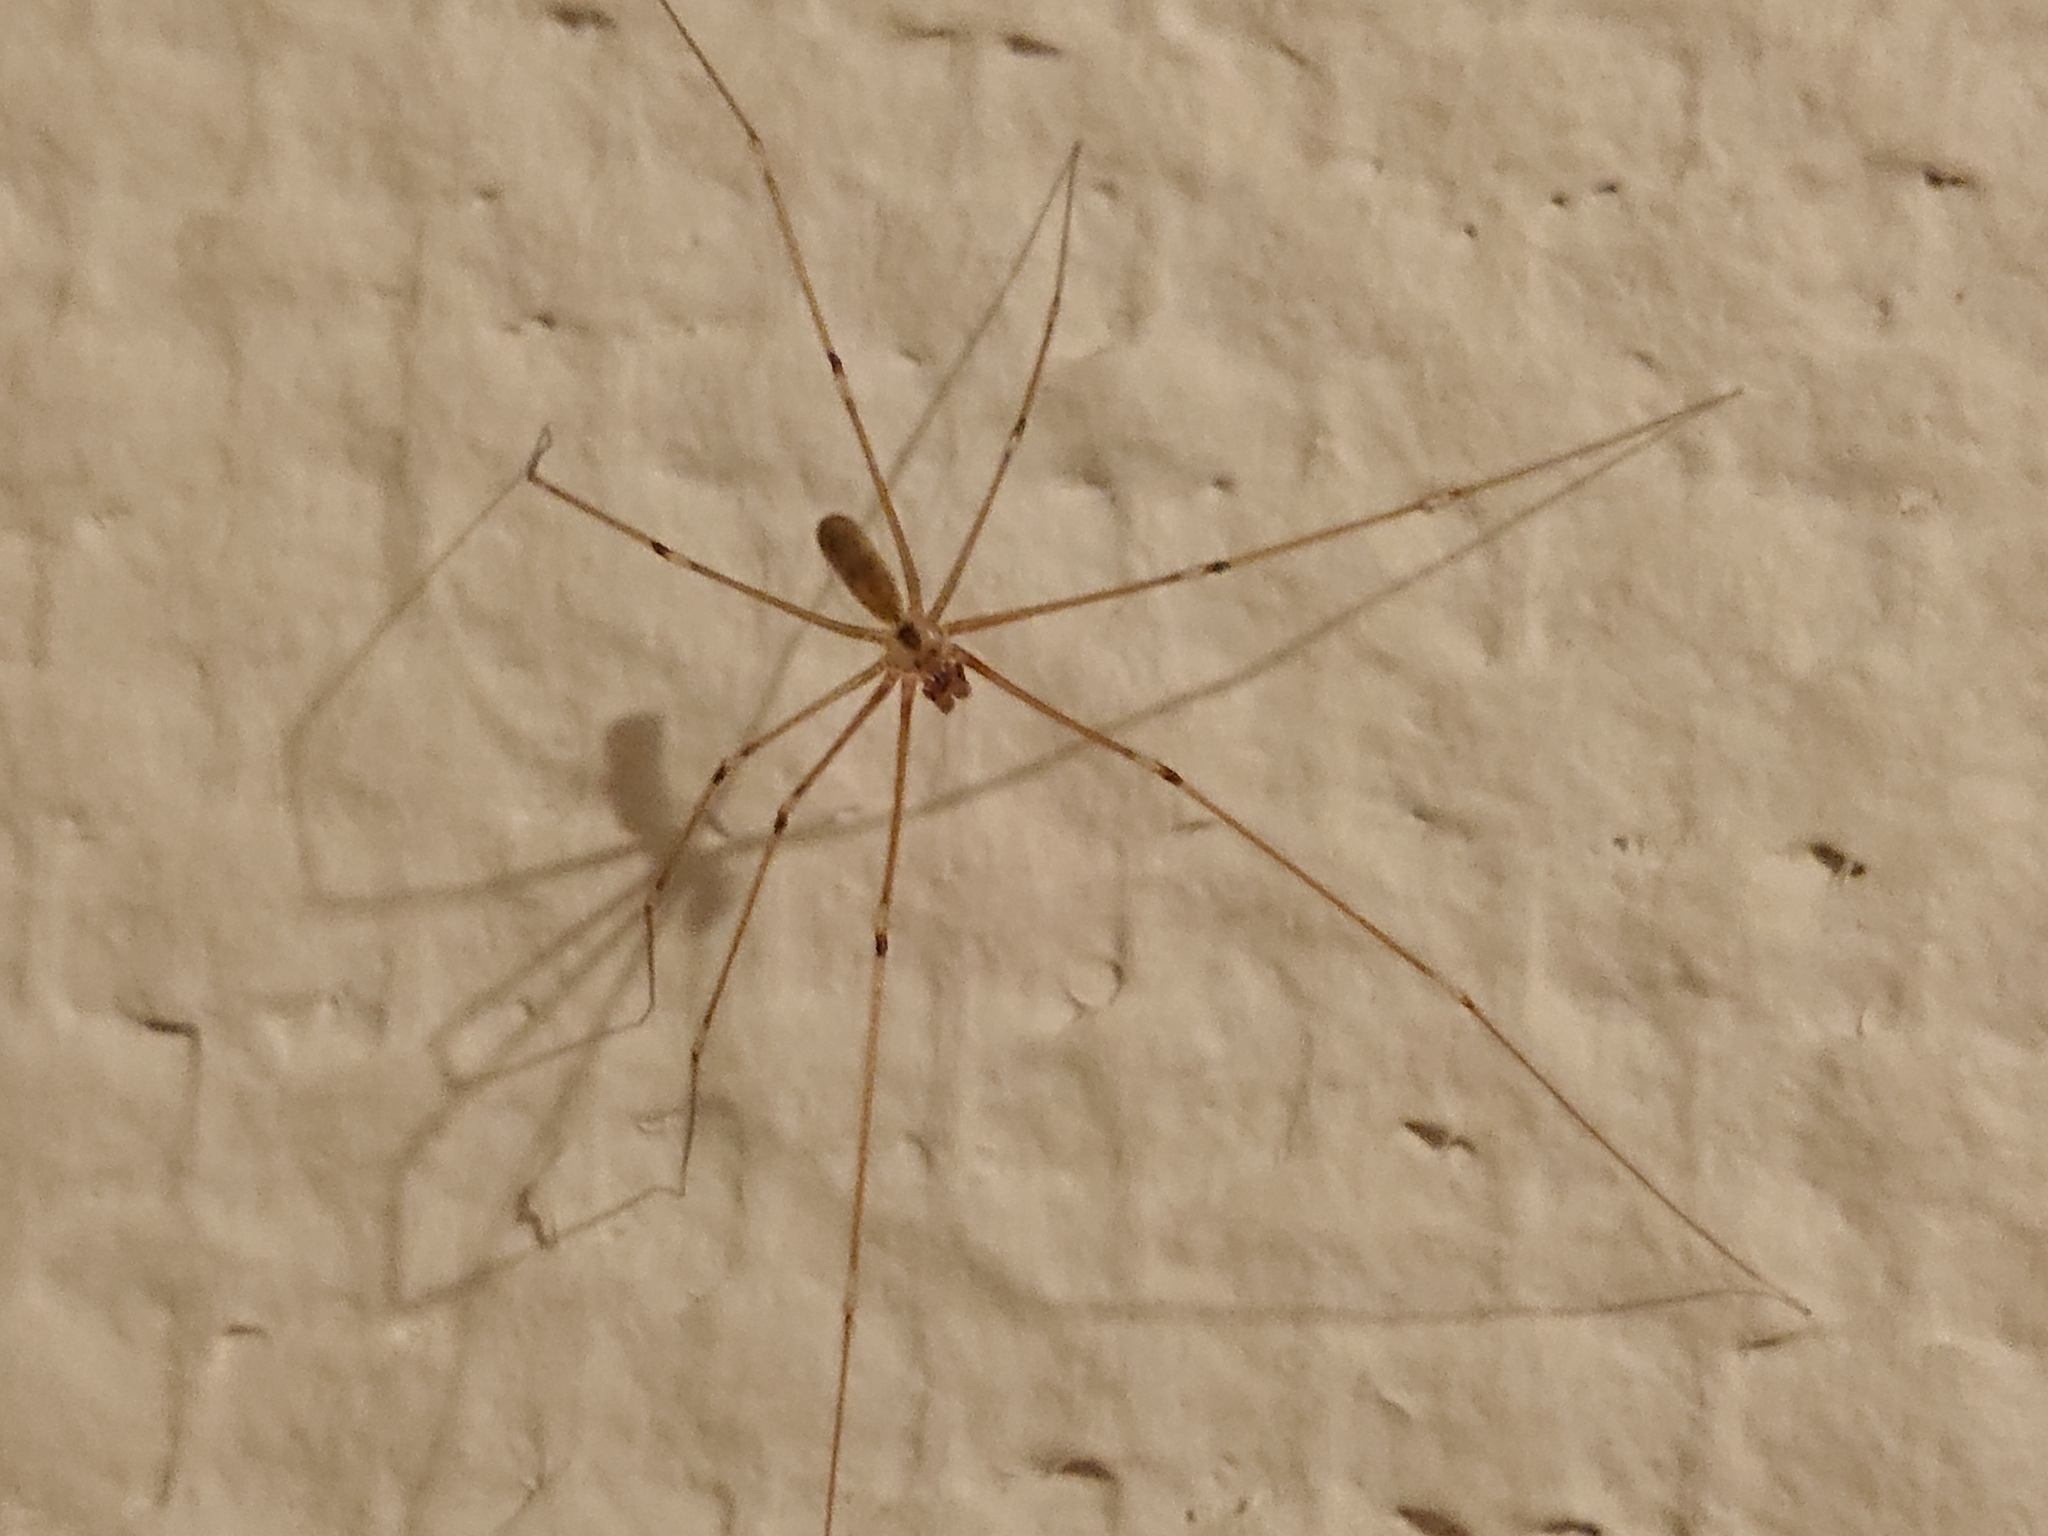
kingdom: Animalia
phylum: Arthropoda
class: Arachnida
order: Araneae
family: Pholcidae
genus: Pholcus
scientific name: Pholcus phalangioides
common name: Longbodied cellar spider
